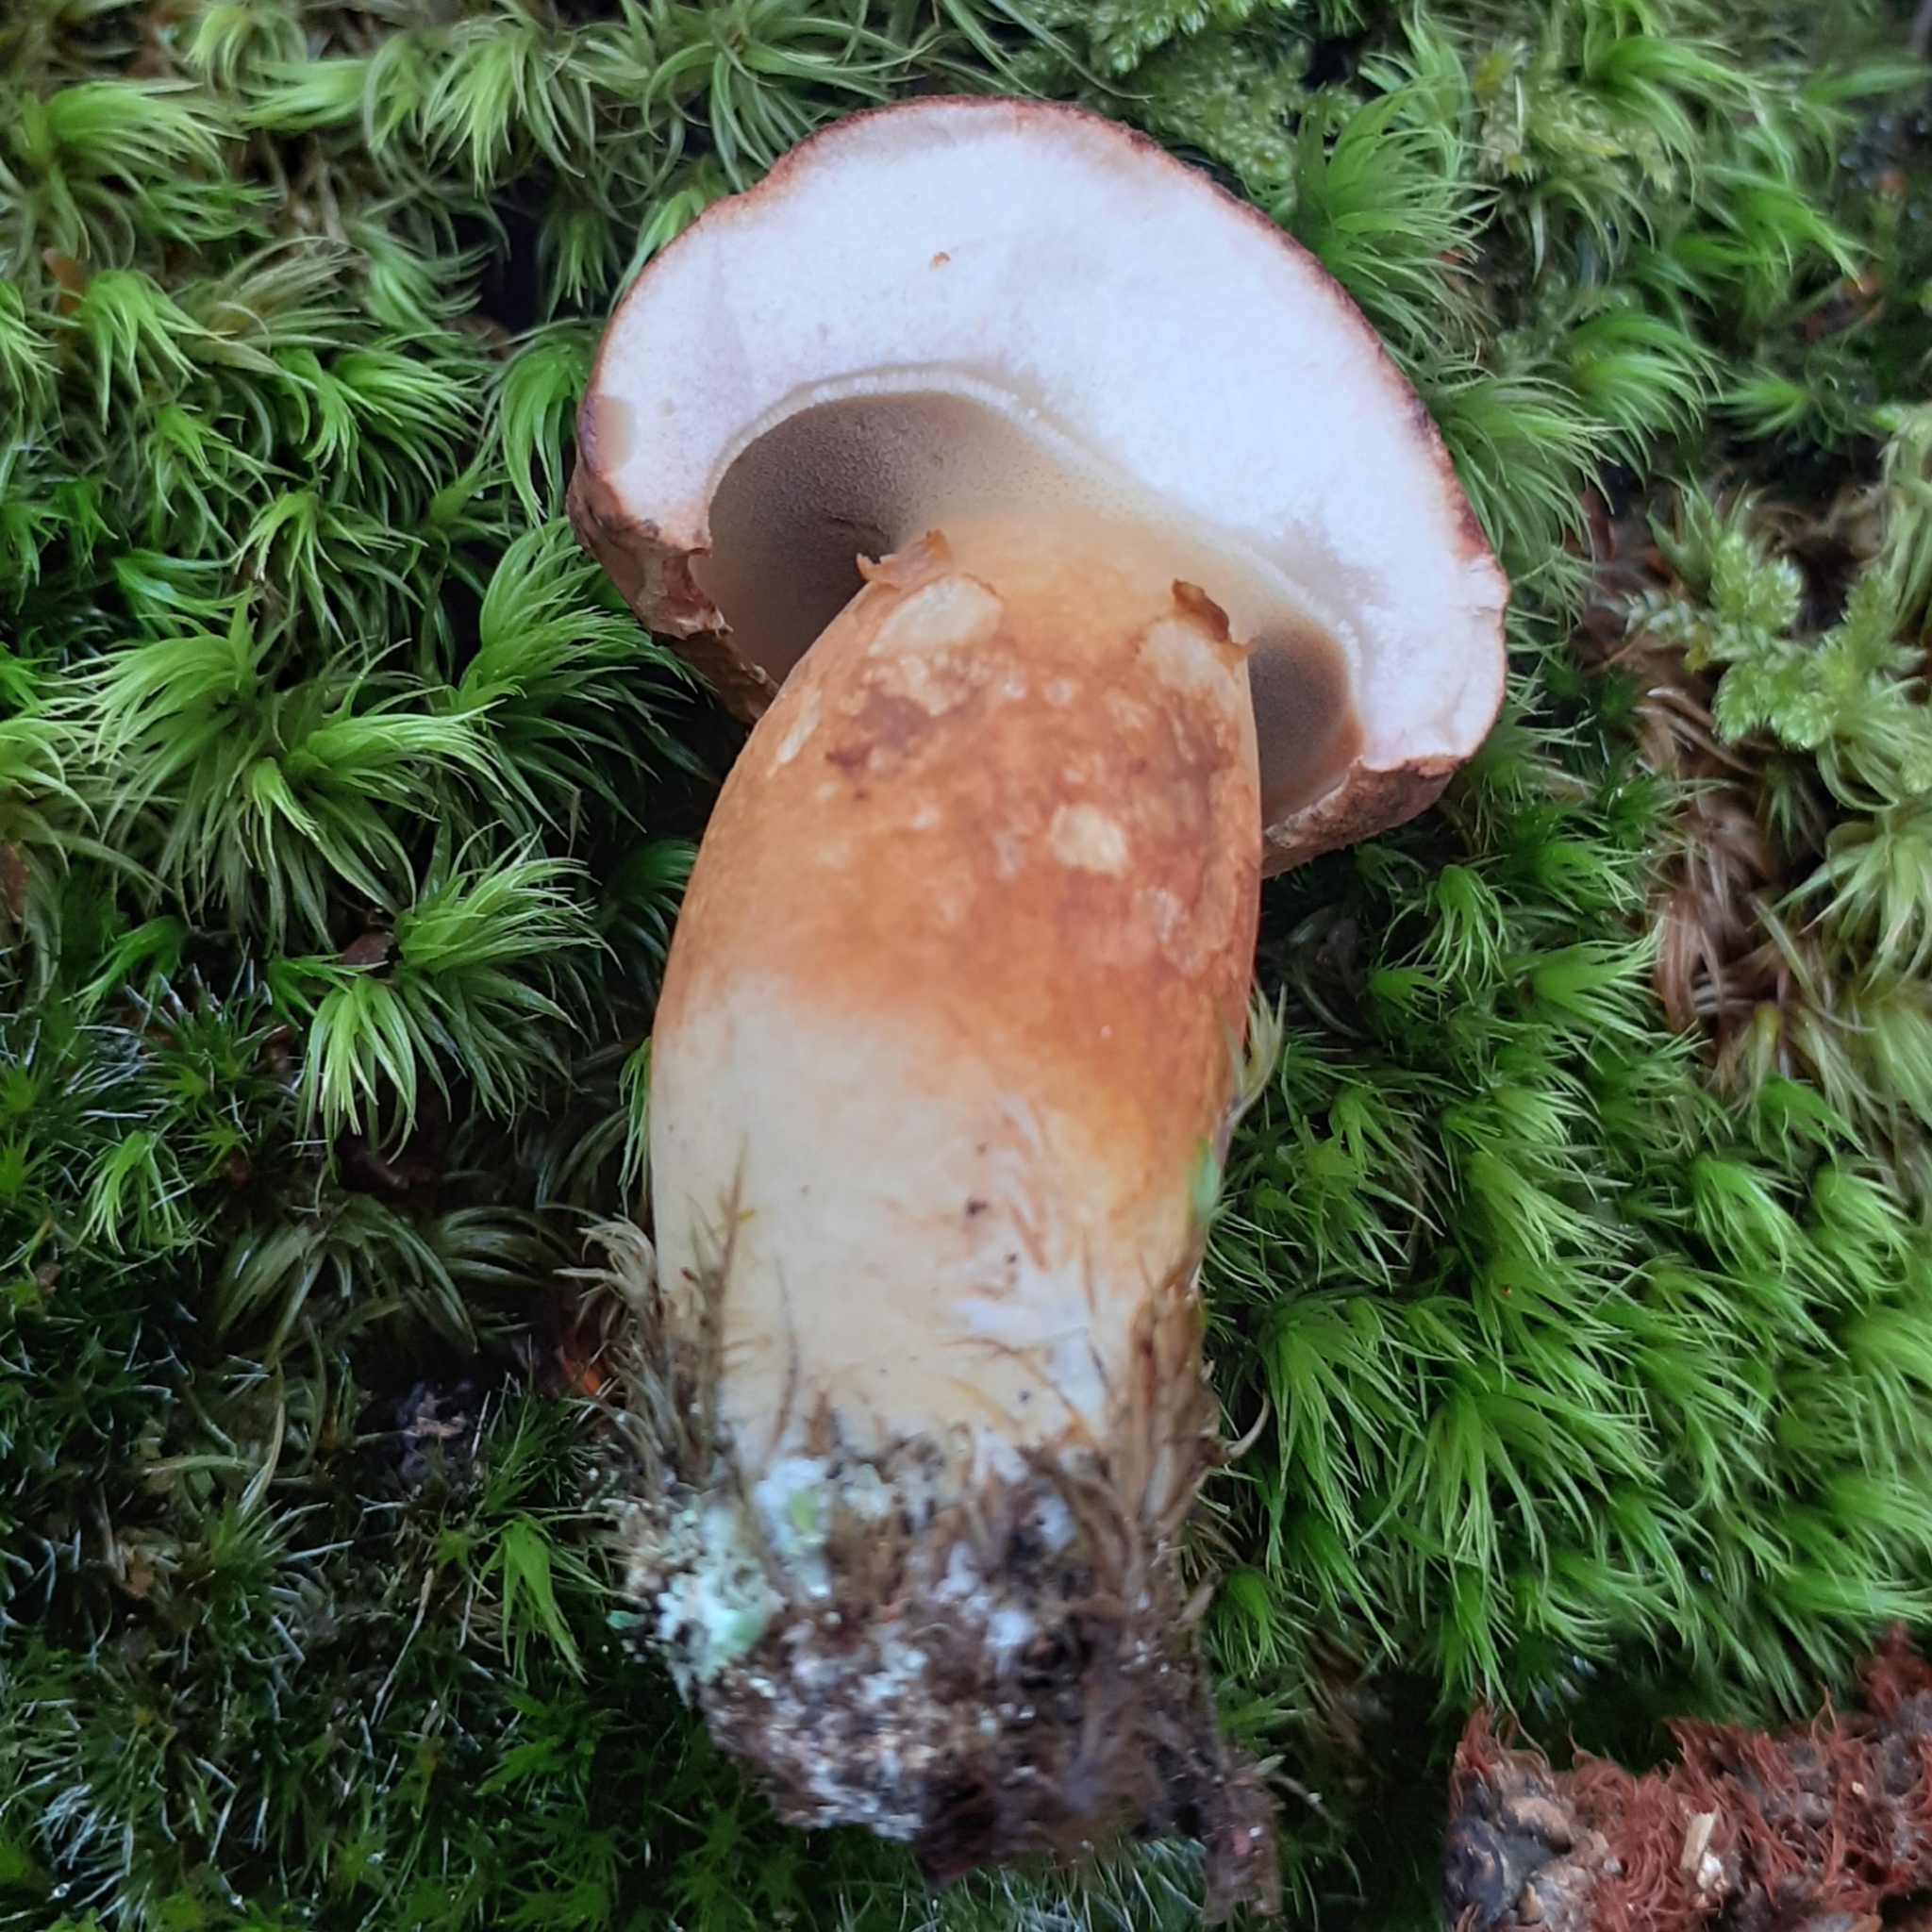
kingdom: Fungi
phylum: Basidiomycota
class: Agaricomycetes
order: Boletales
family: Boletaceae
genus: Imleria
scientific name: Imleria badia
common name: Bay bolete
